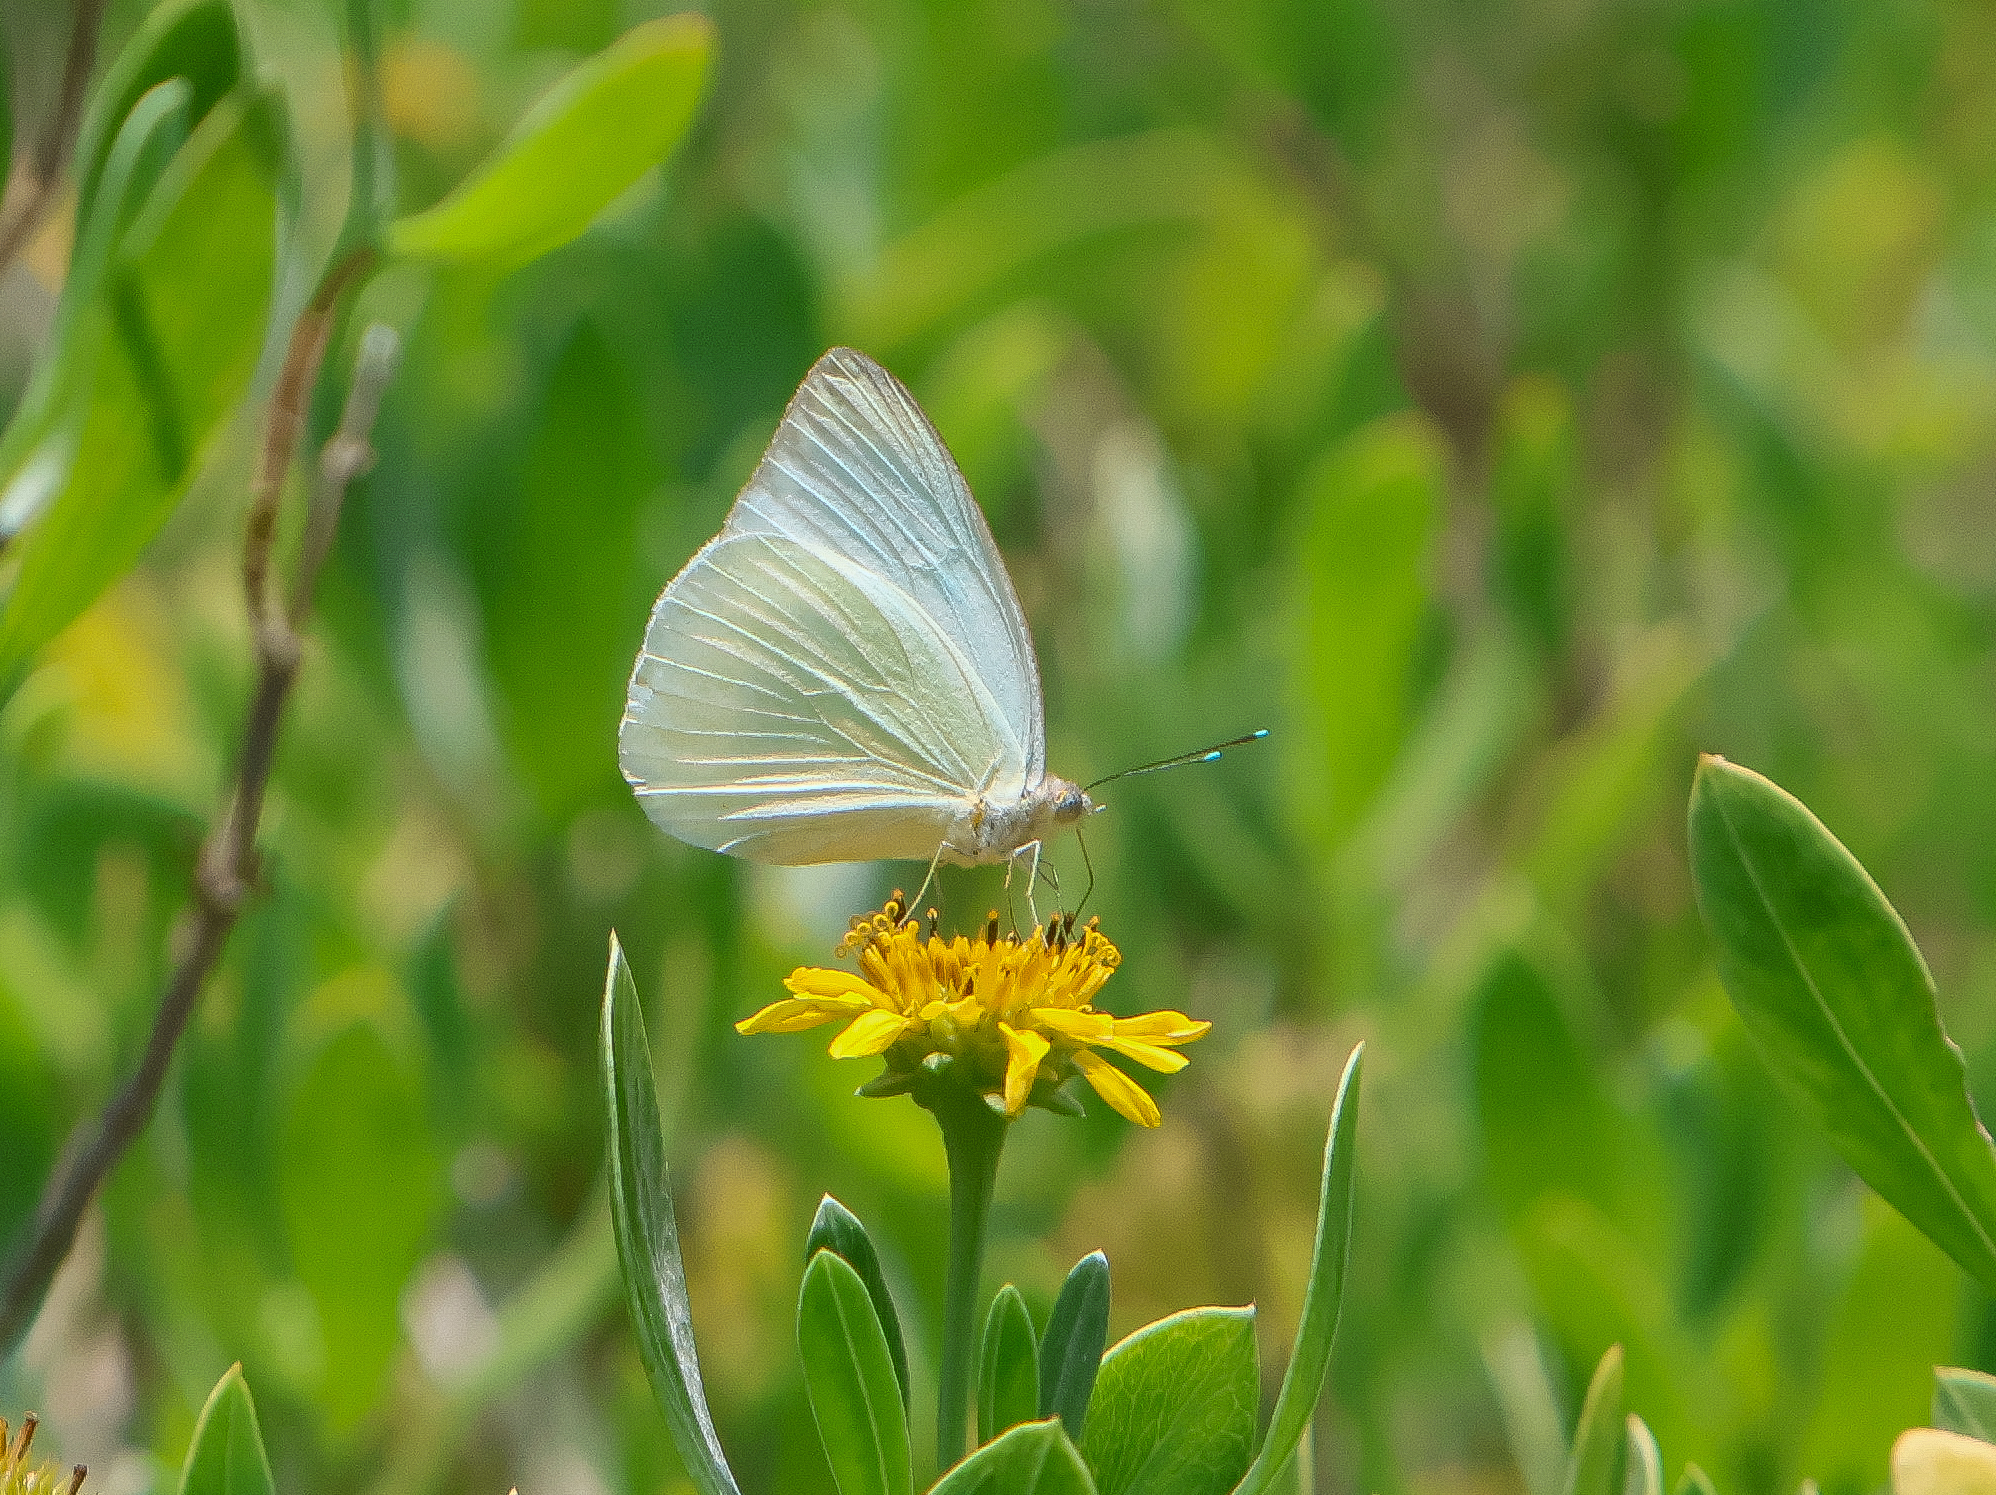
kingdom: Animalia
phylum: Arthropoda
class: Insecta
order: Lepidoptera
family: Pieridae
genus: Ascia
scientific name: Ascia monuste
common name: Great southern white
